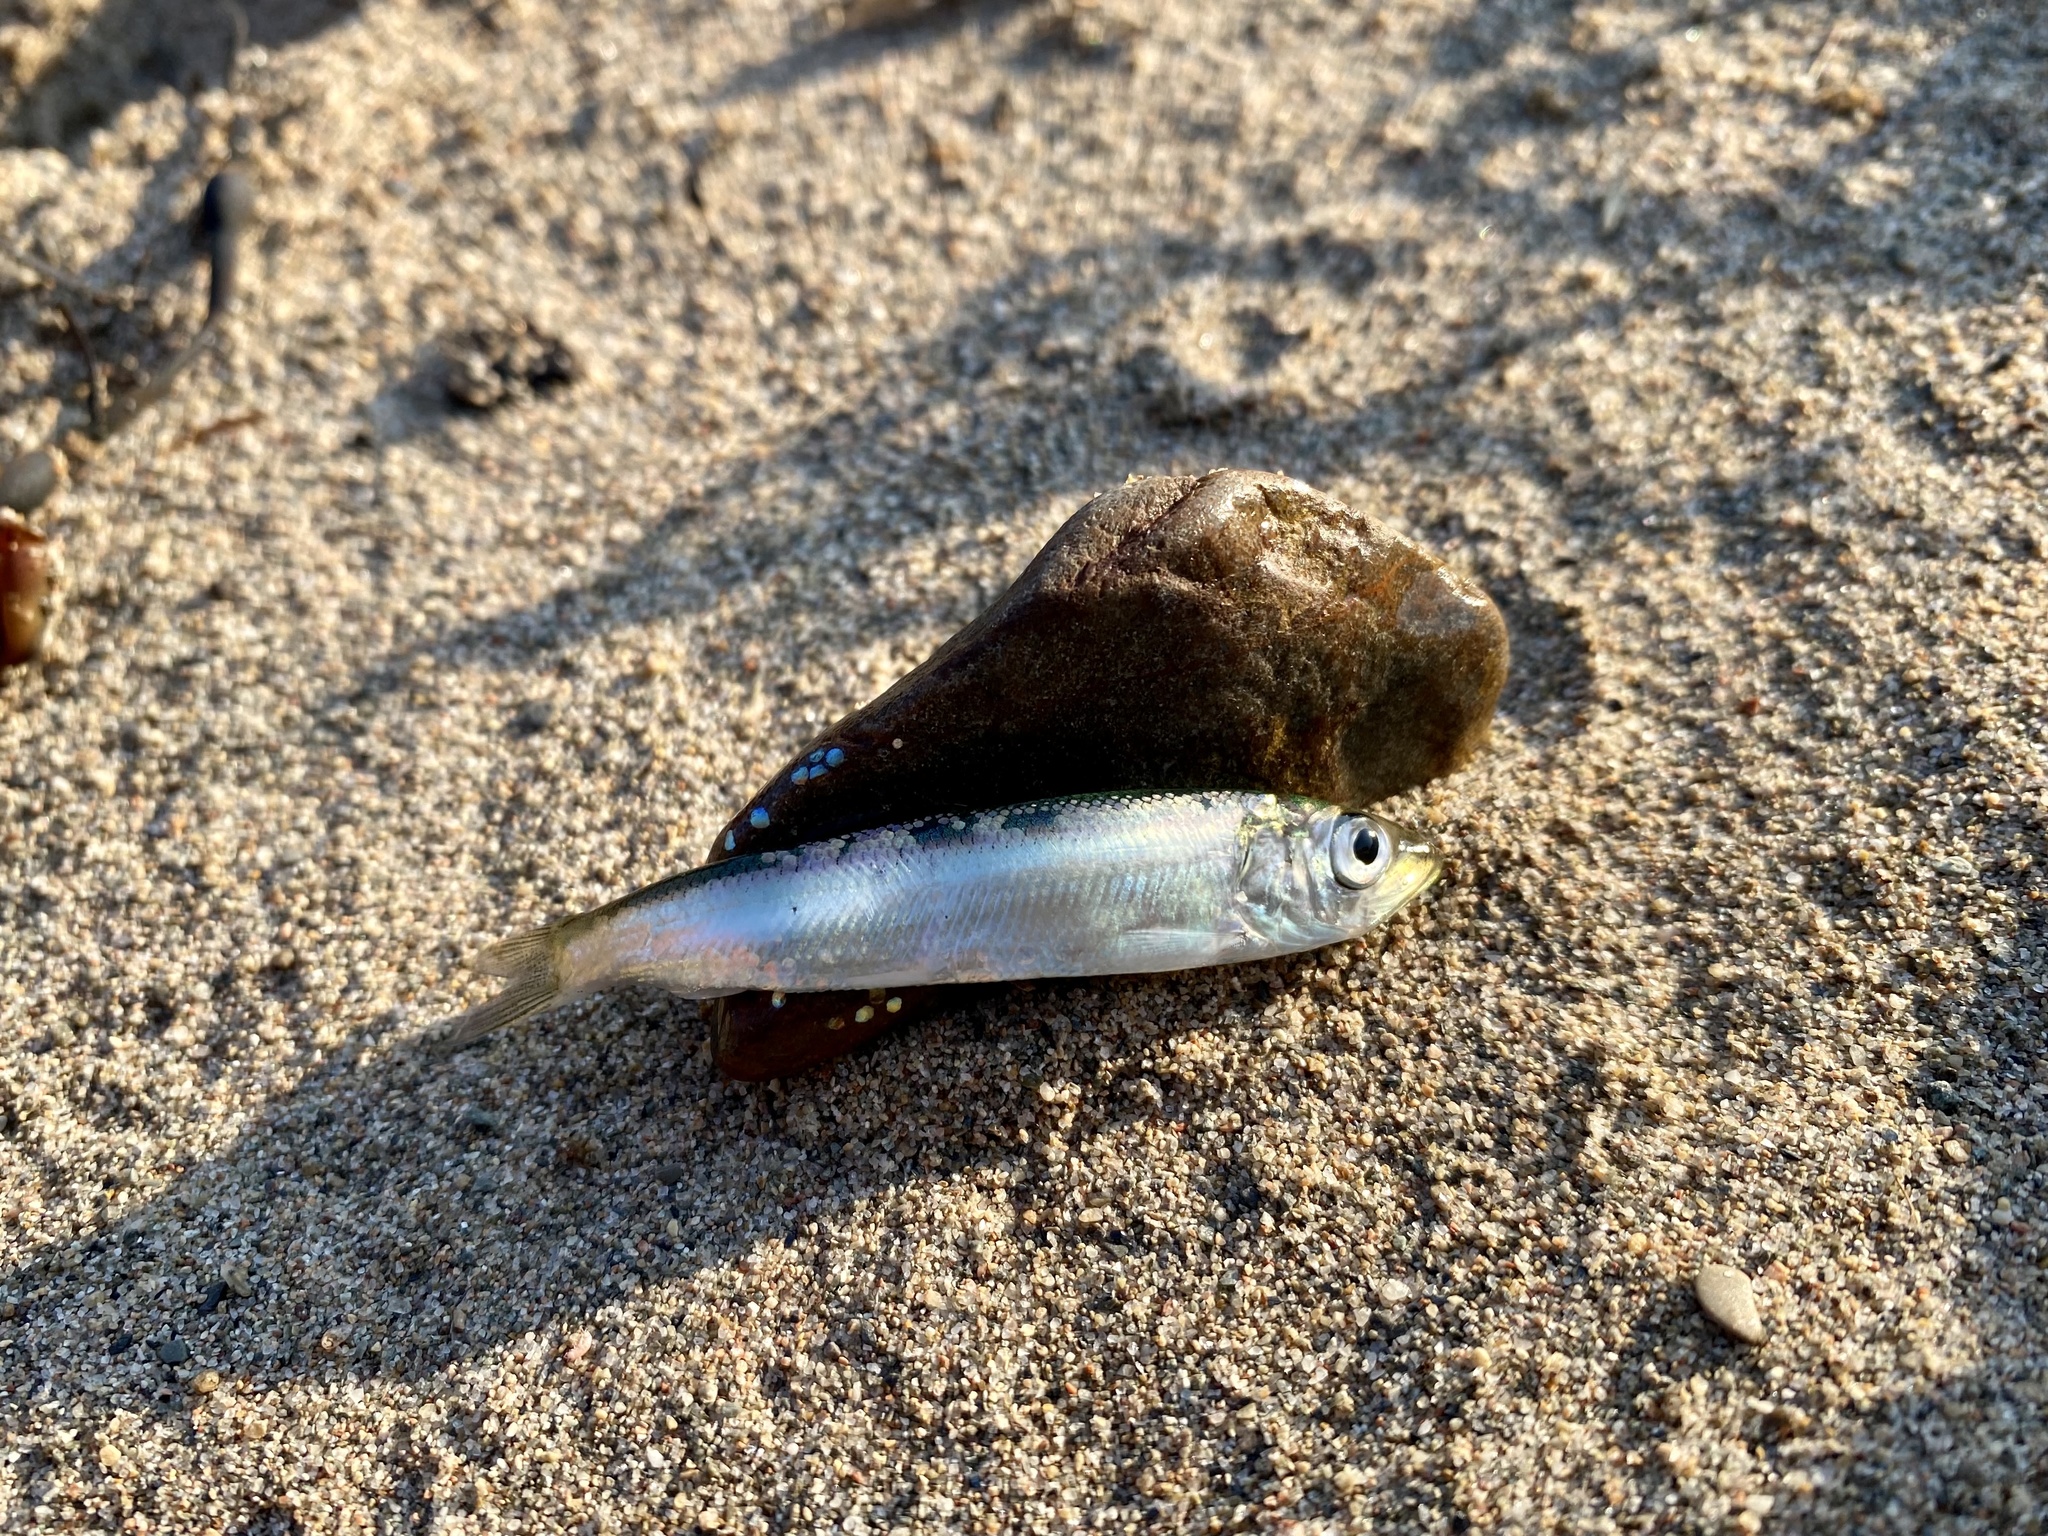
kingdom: Animalia
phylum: Chordata
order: Clupeiformes
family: Clupeidae
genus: Alosa
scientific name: Alosa pseudoharengus
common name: Alewife
